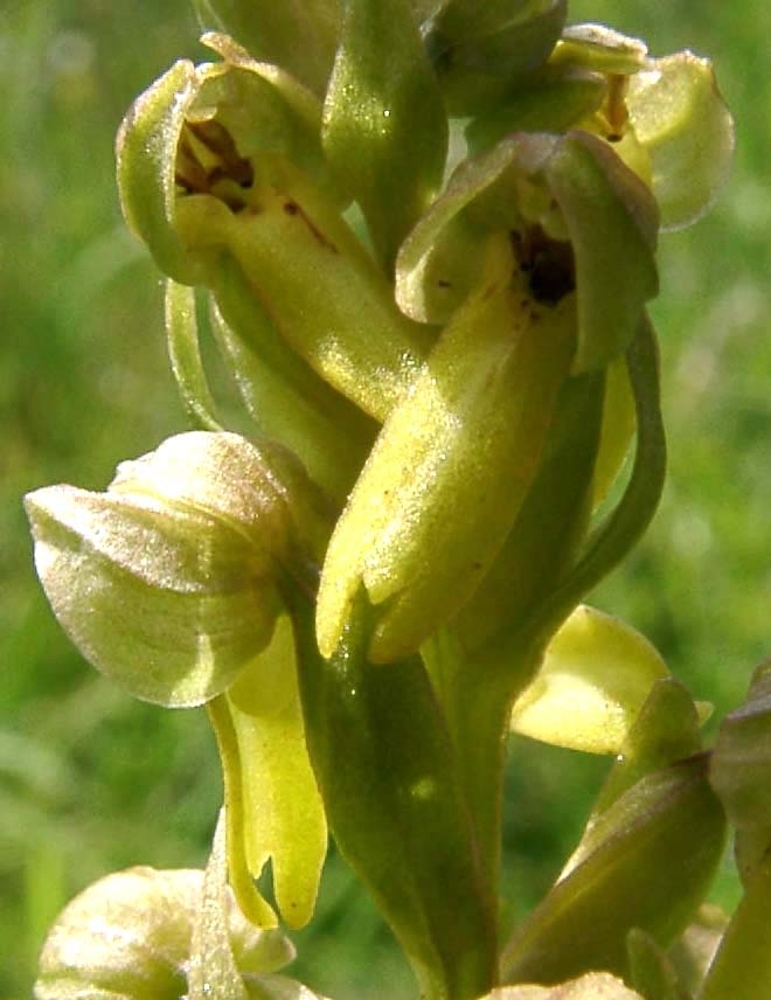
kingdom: Plantae
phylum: Tracheophyta
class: Liliopsida
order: Asparagales
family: Orchidaceae
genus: Dactylorhiza
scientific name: Dactylorhiza viridis
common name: Longbract frog orchid
